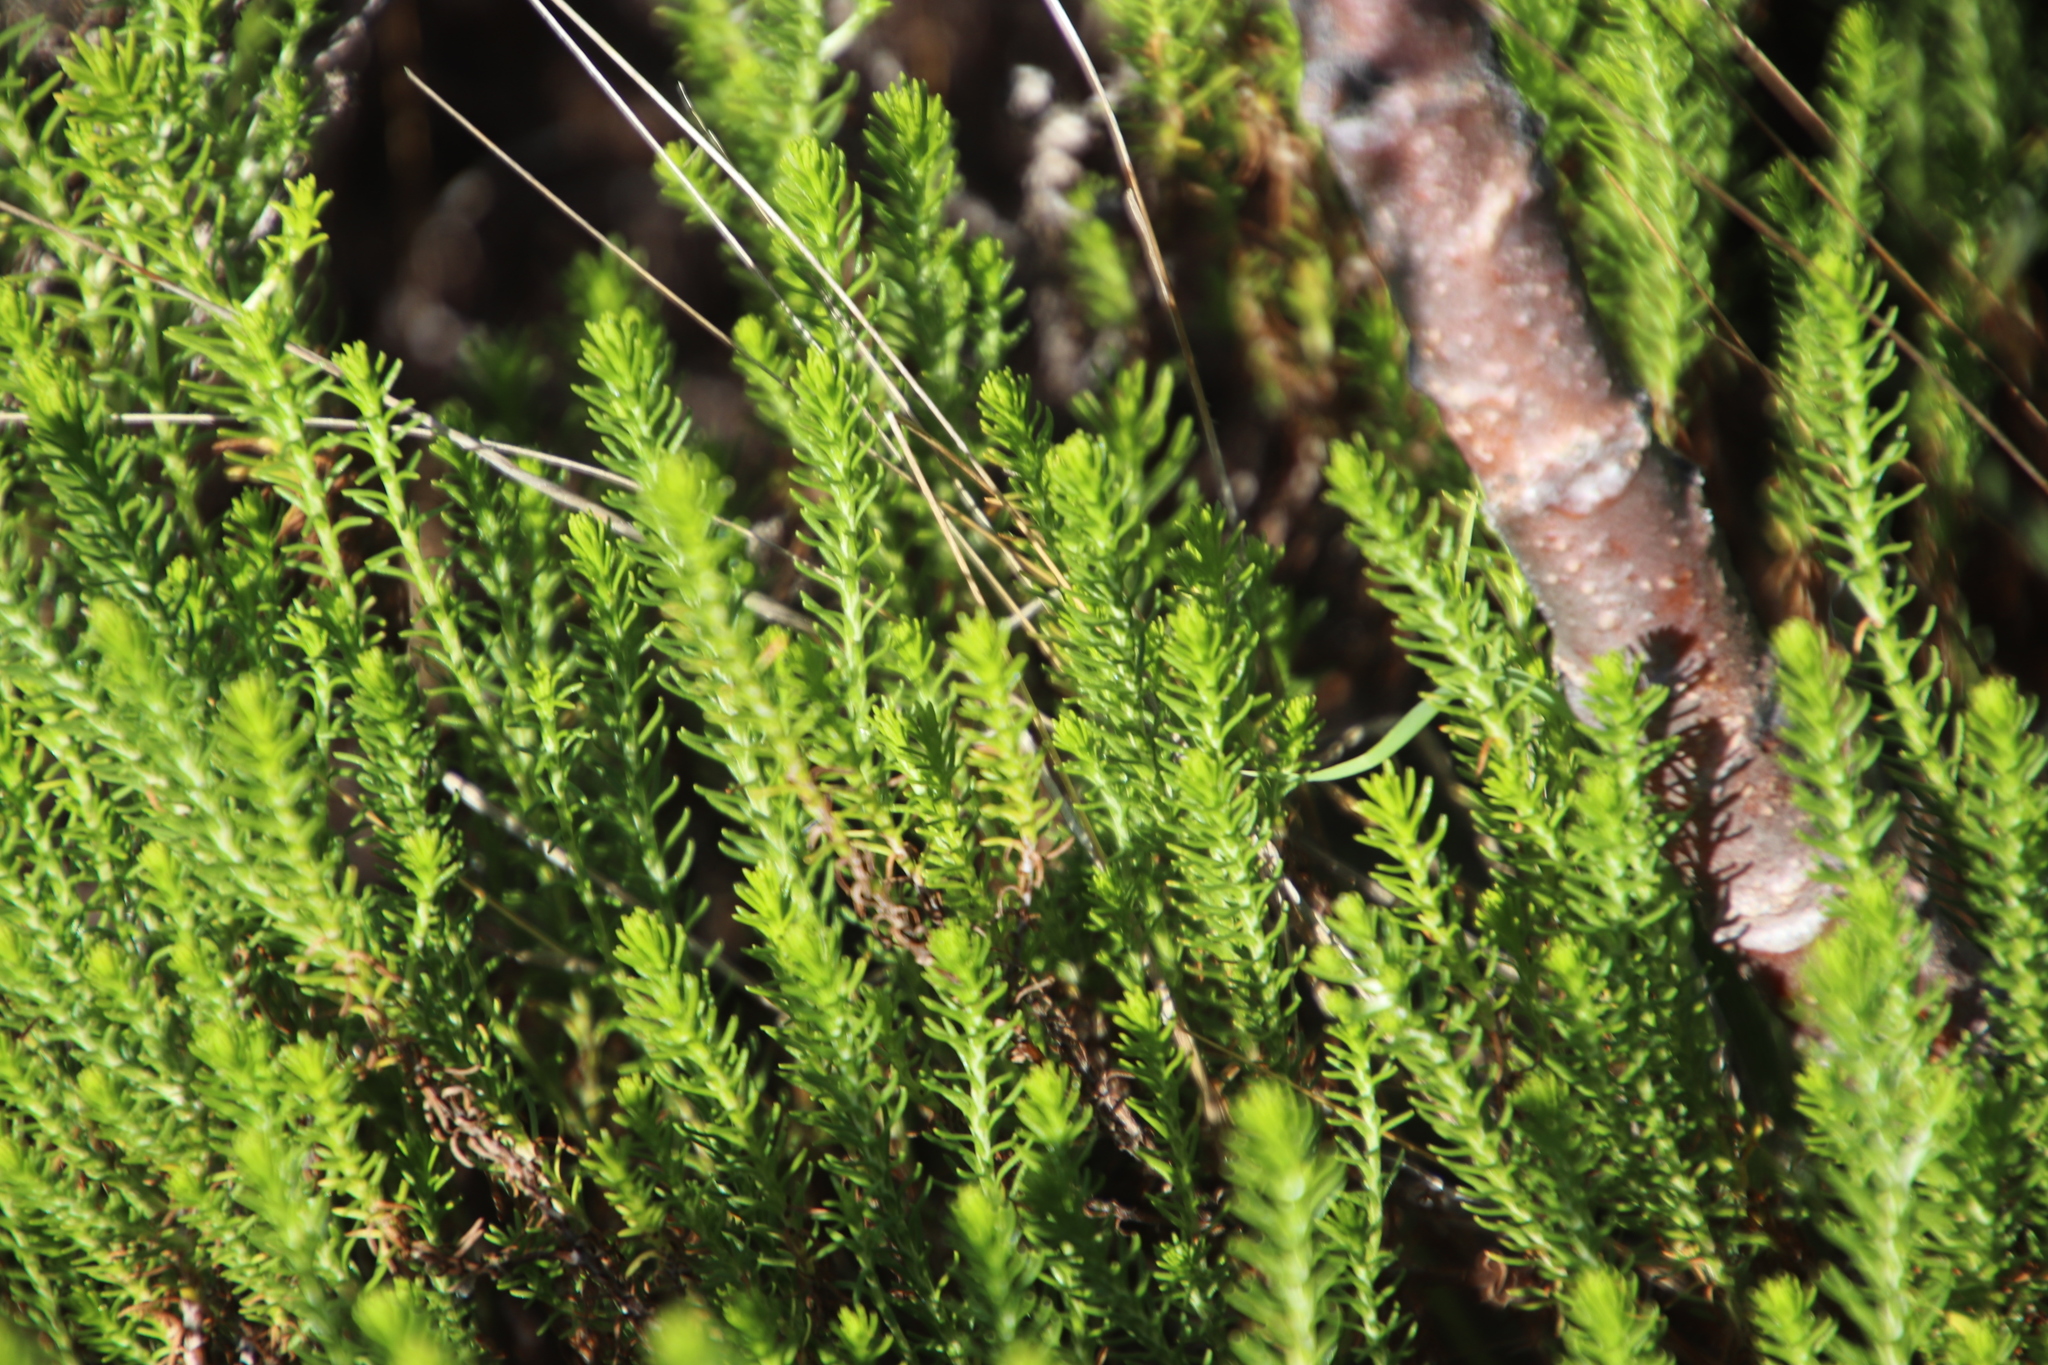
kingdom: Plantae
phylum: Tracheophyta
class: Magnoliopsida
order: Asterales
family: Asteraceae
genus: Helichrysum
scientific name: Helichrysum niveum
